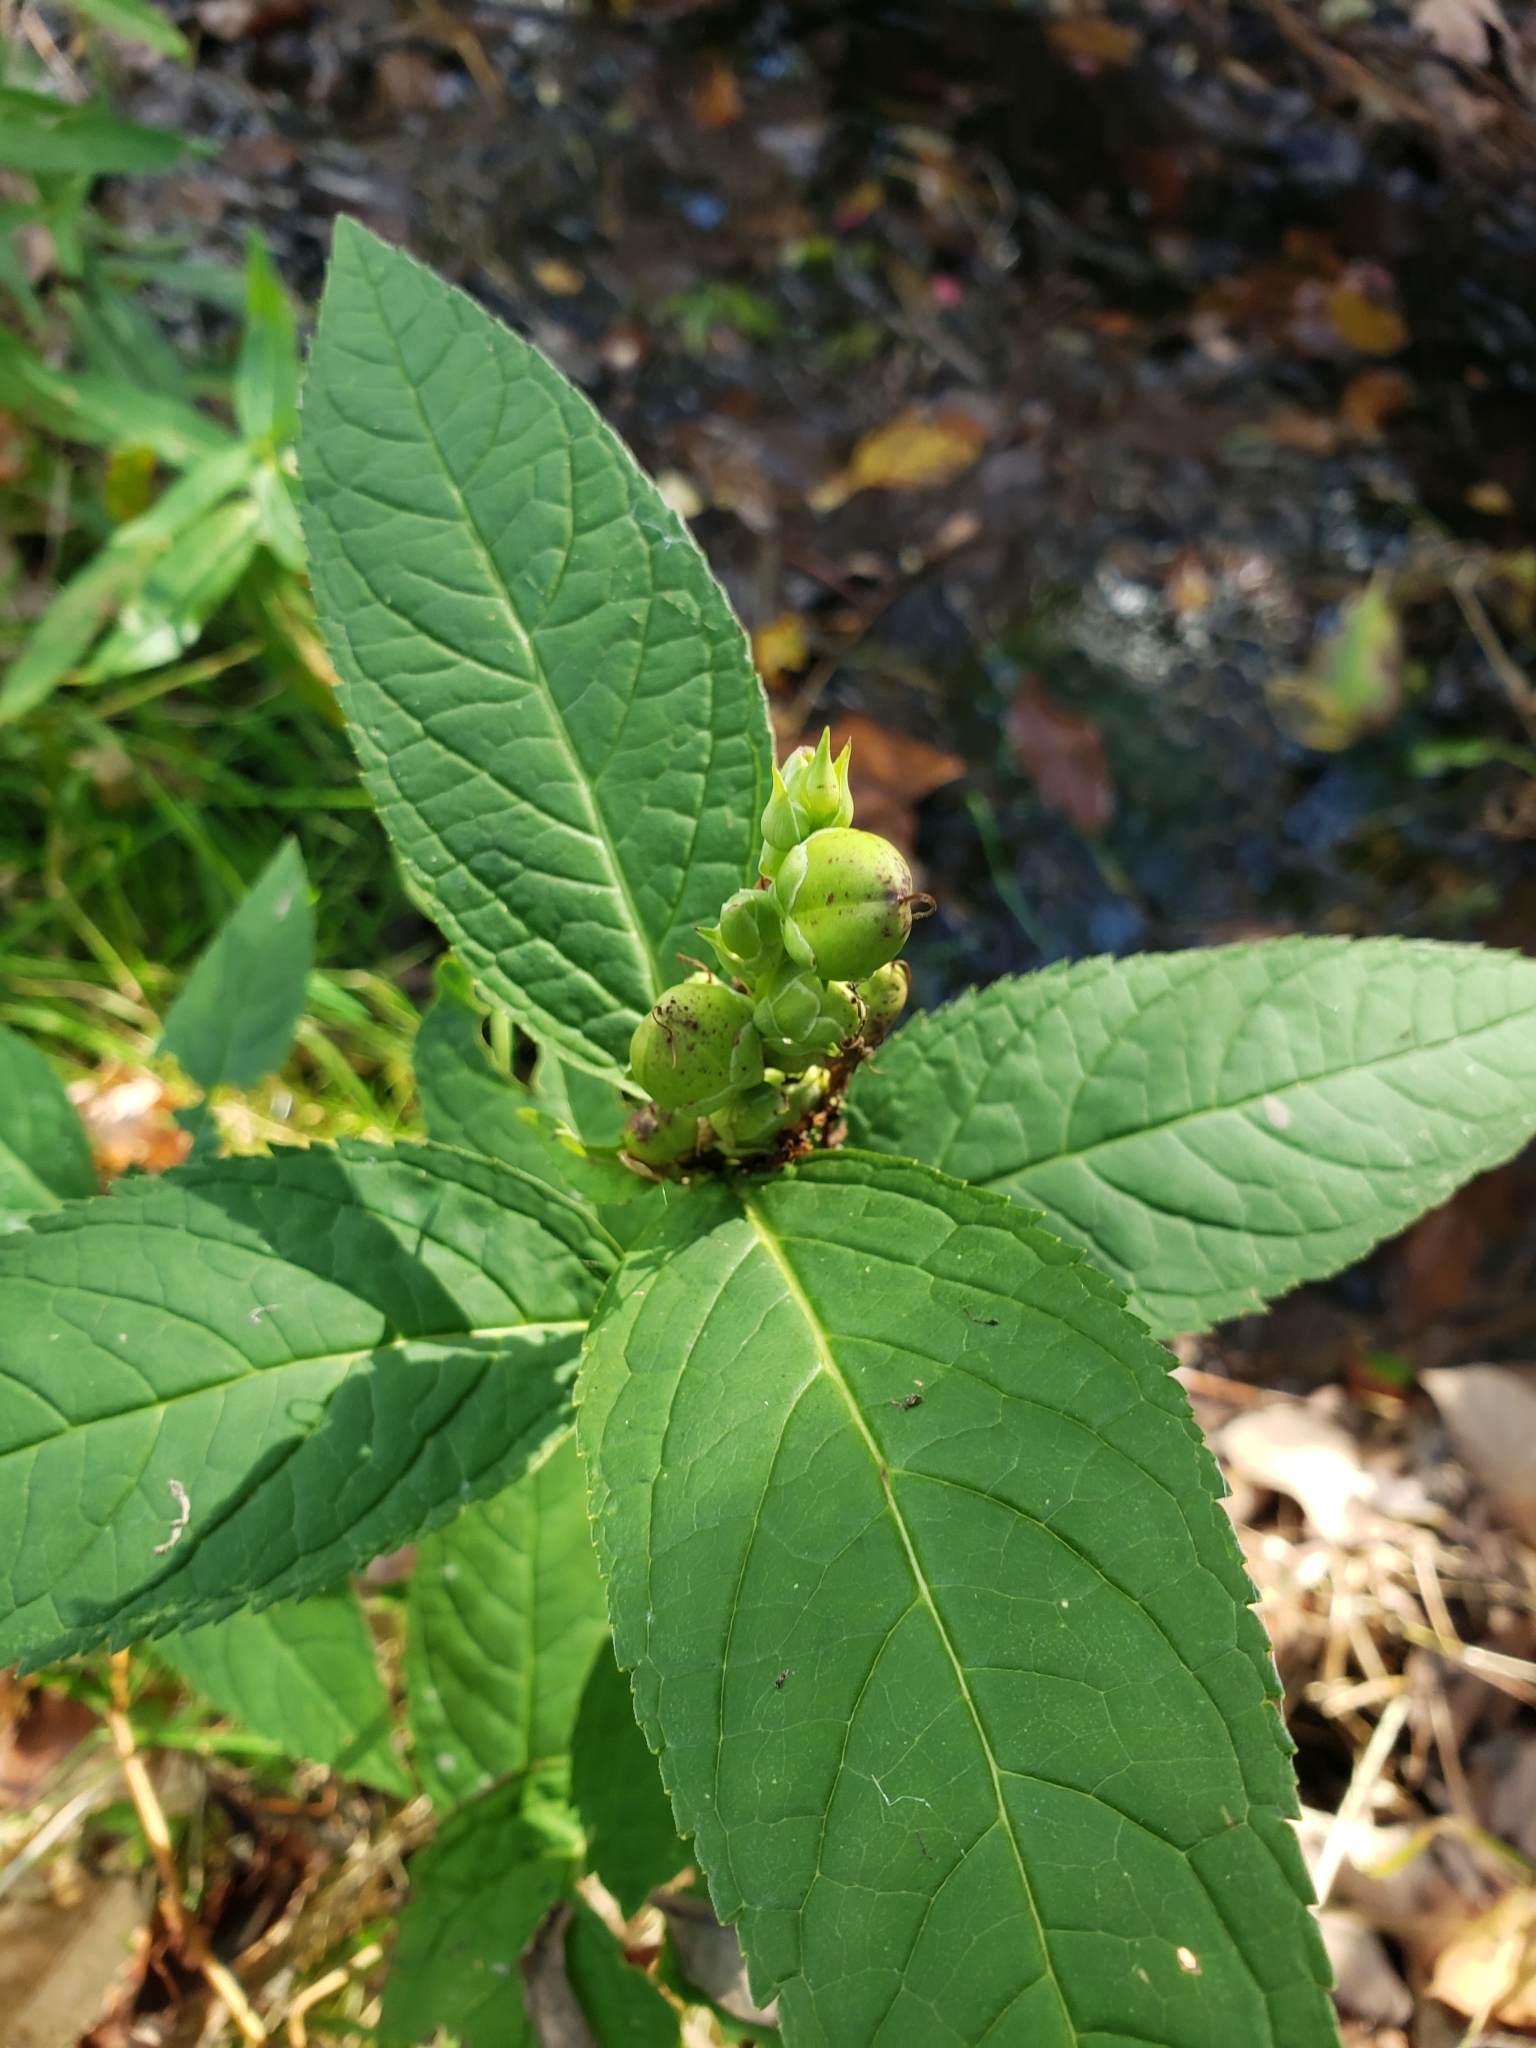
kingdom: Plantae
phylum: Tracheophyta
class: Magnoliopsida
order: Lamiales
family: Plantaginaceae
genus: Chelone
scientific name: Chelone glabra
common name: Snakehead
